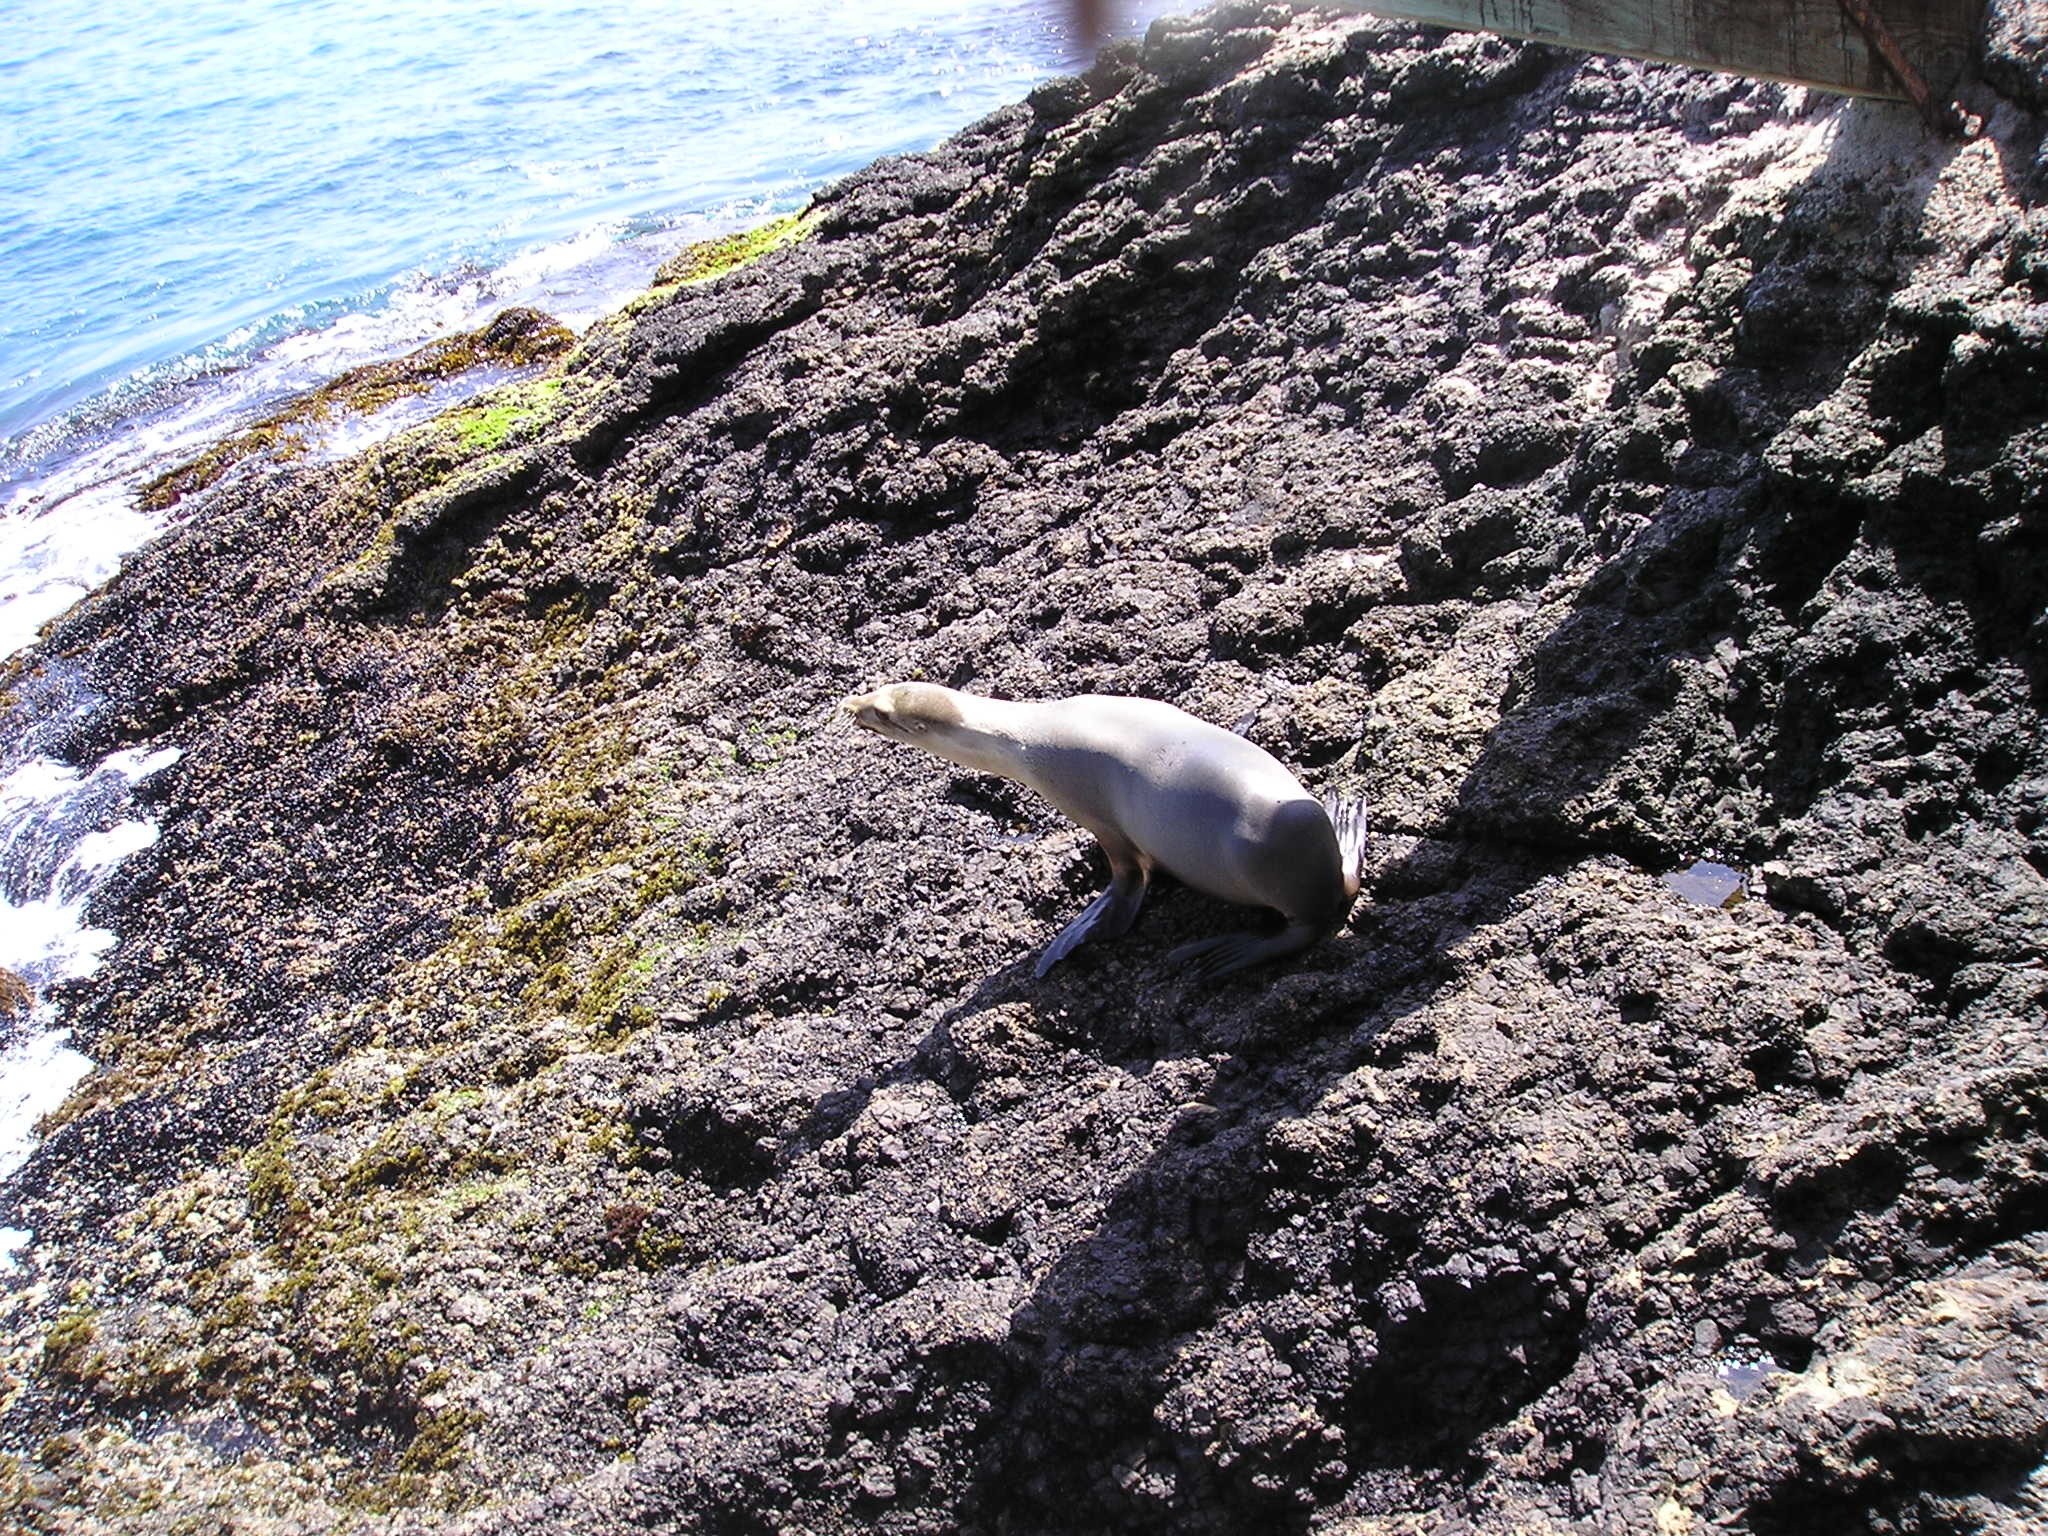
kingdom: Animalia
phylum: Chordata
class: Mammalia
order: Carnivora
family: Otariidae
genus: Zalophus
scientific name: Zalophus californianus
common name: California sea lion
